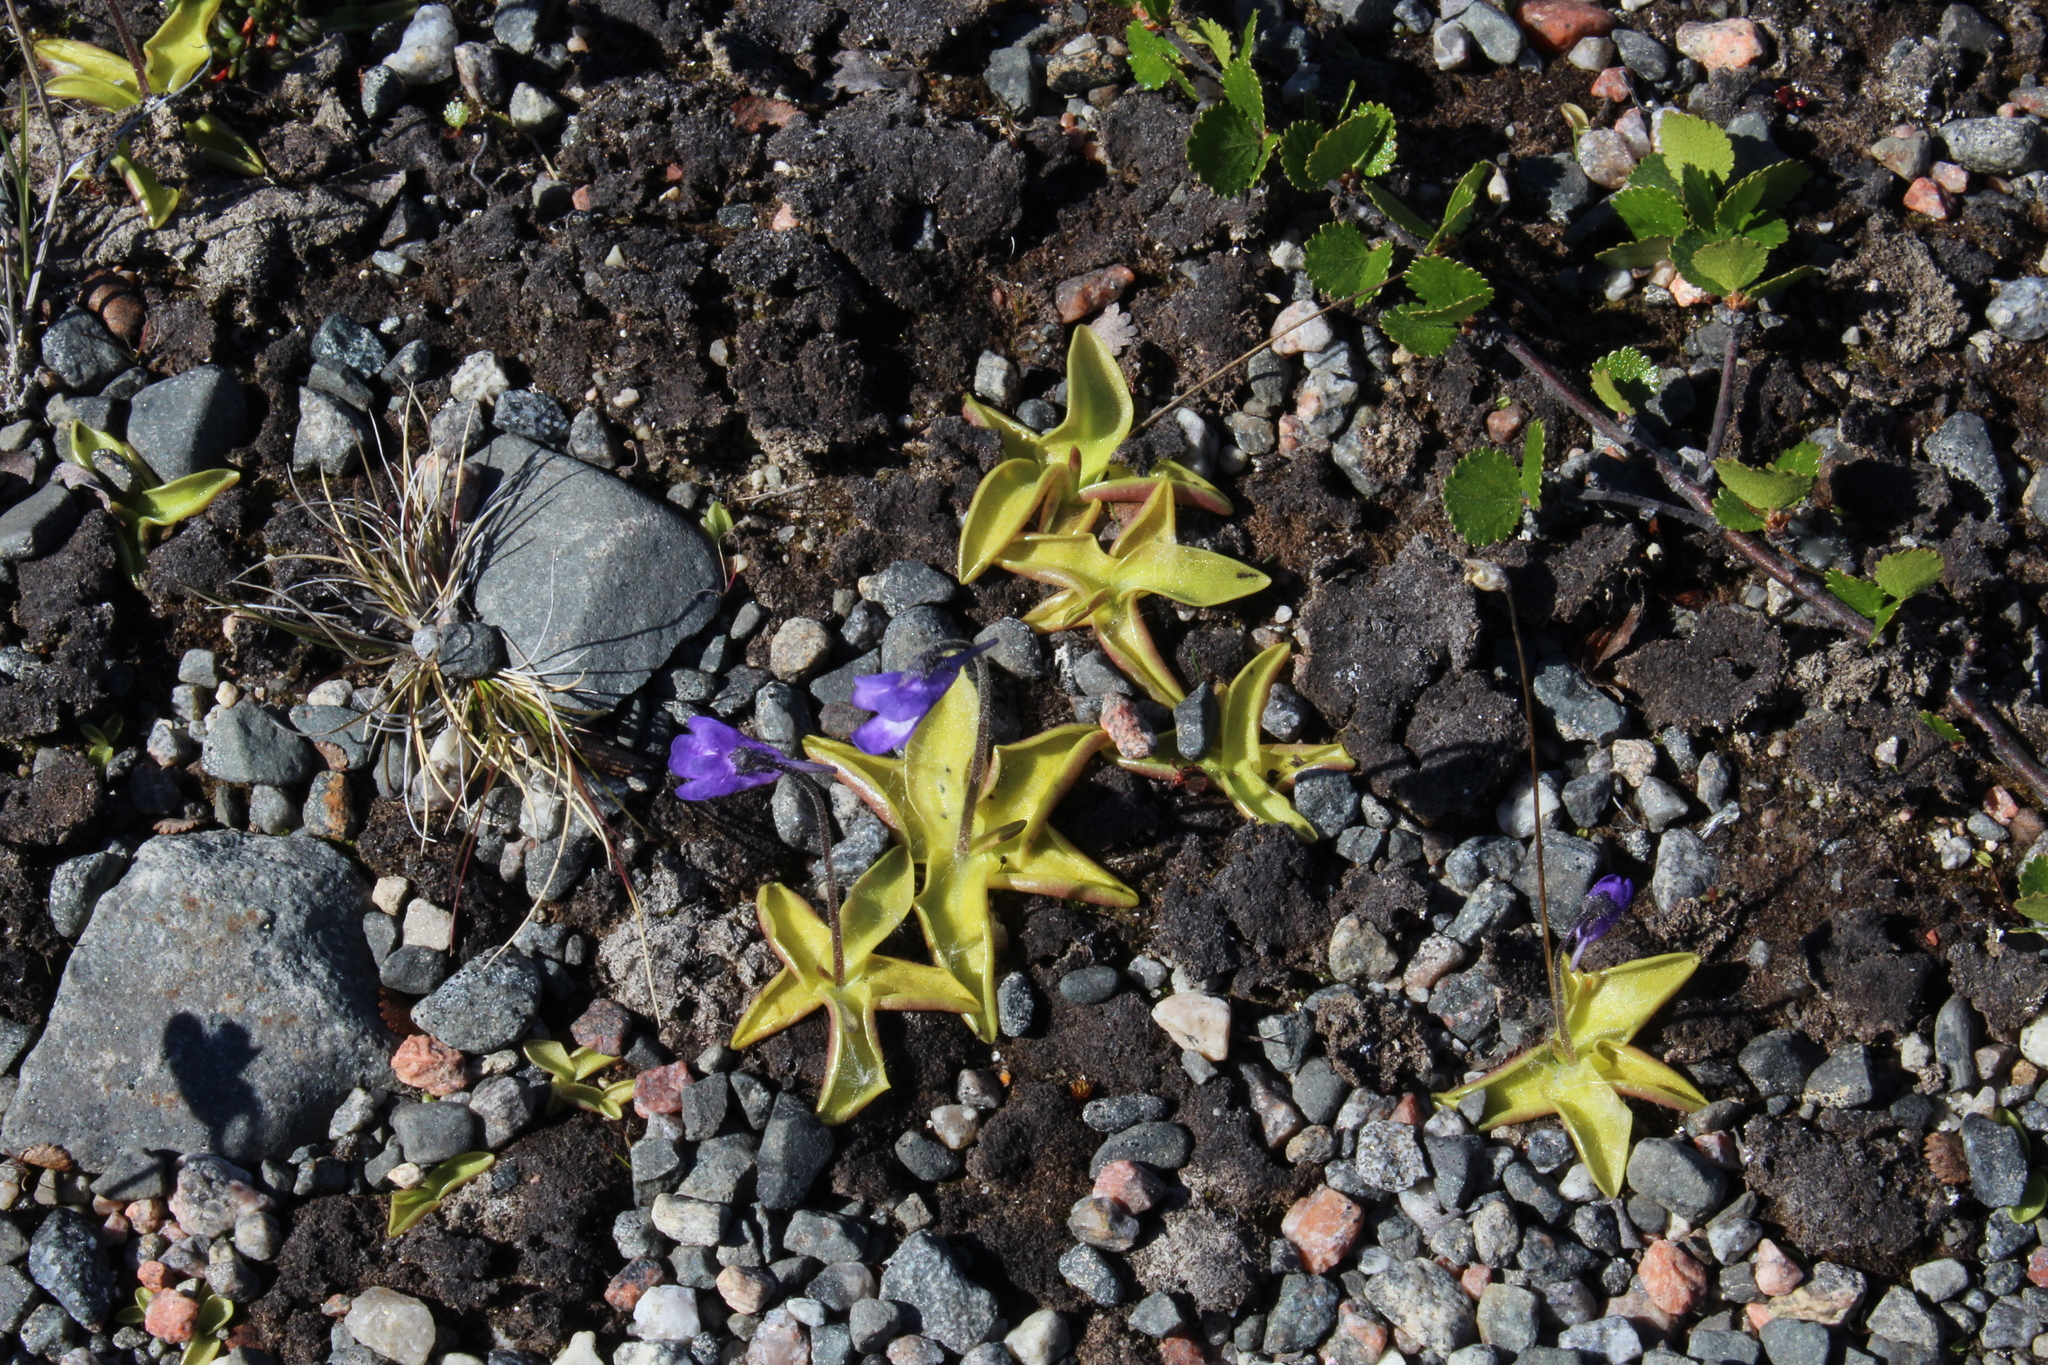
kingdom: Plantae
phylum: Tracheophyta
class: Magnoliopsida
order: Lamiales
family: Lentibulariaceae
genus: Pinguicula
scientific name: Pinguicula vulgaris
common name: Common butterwort
